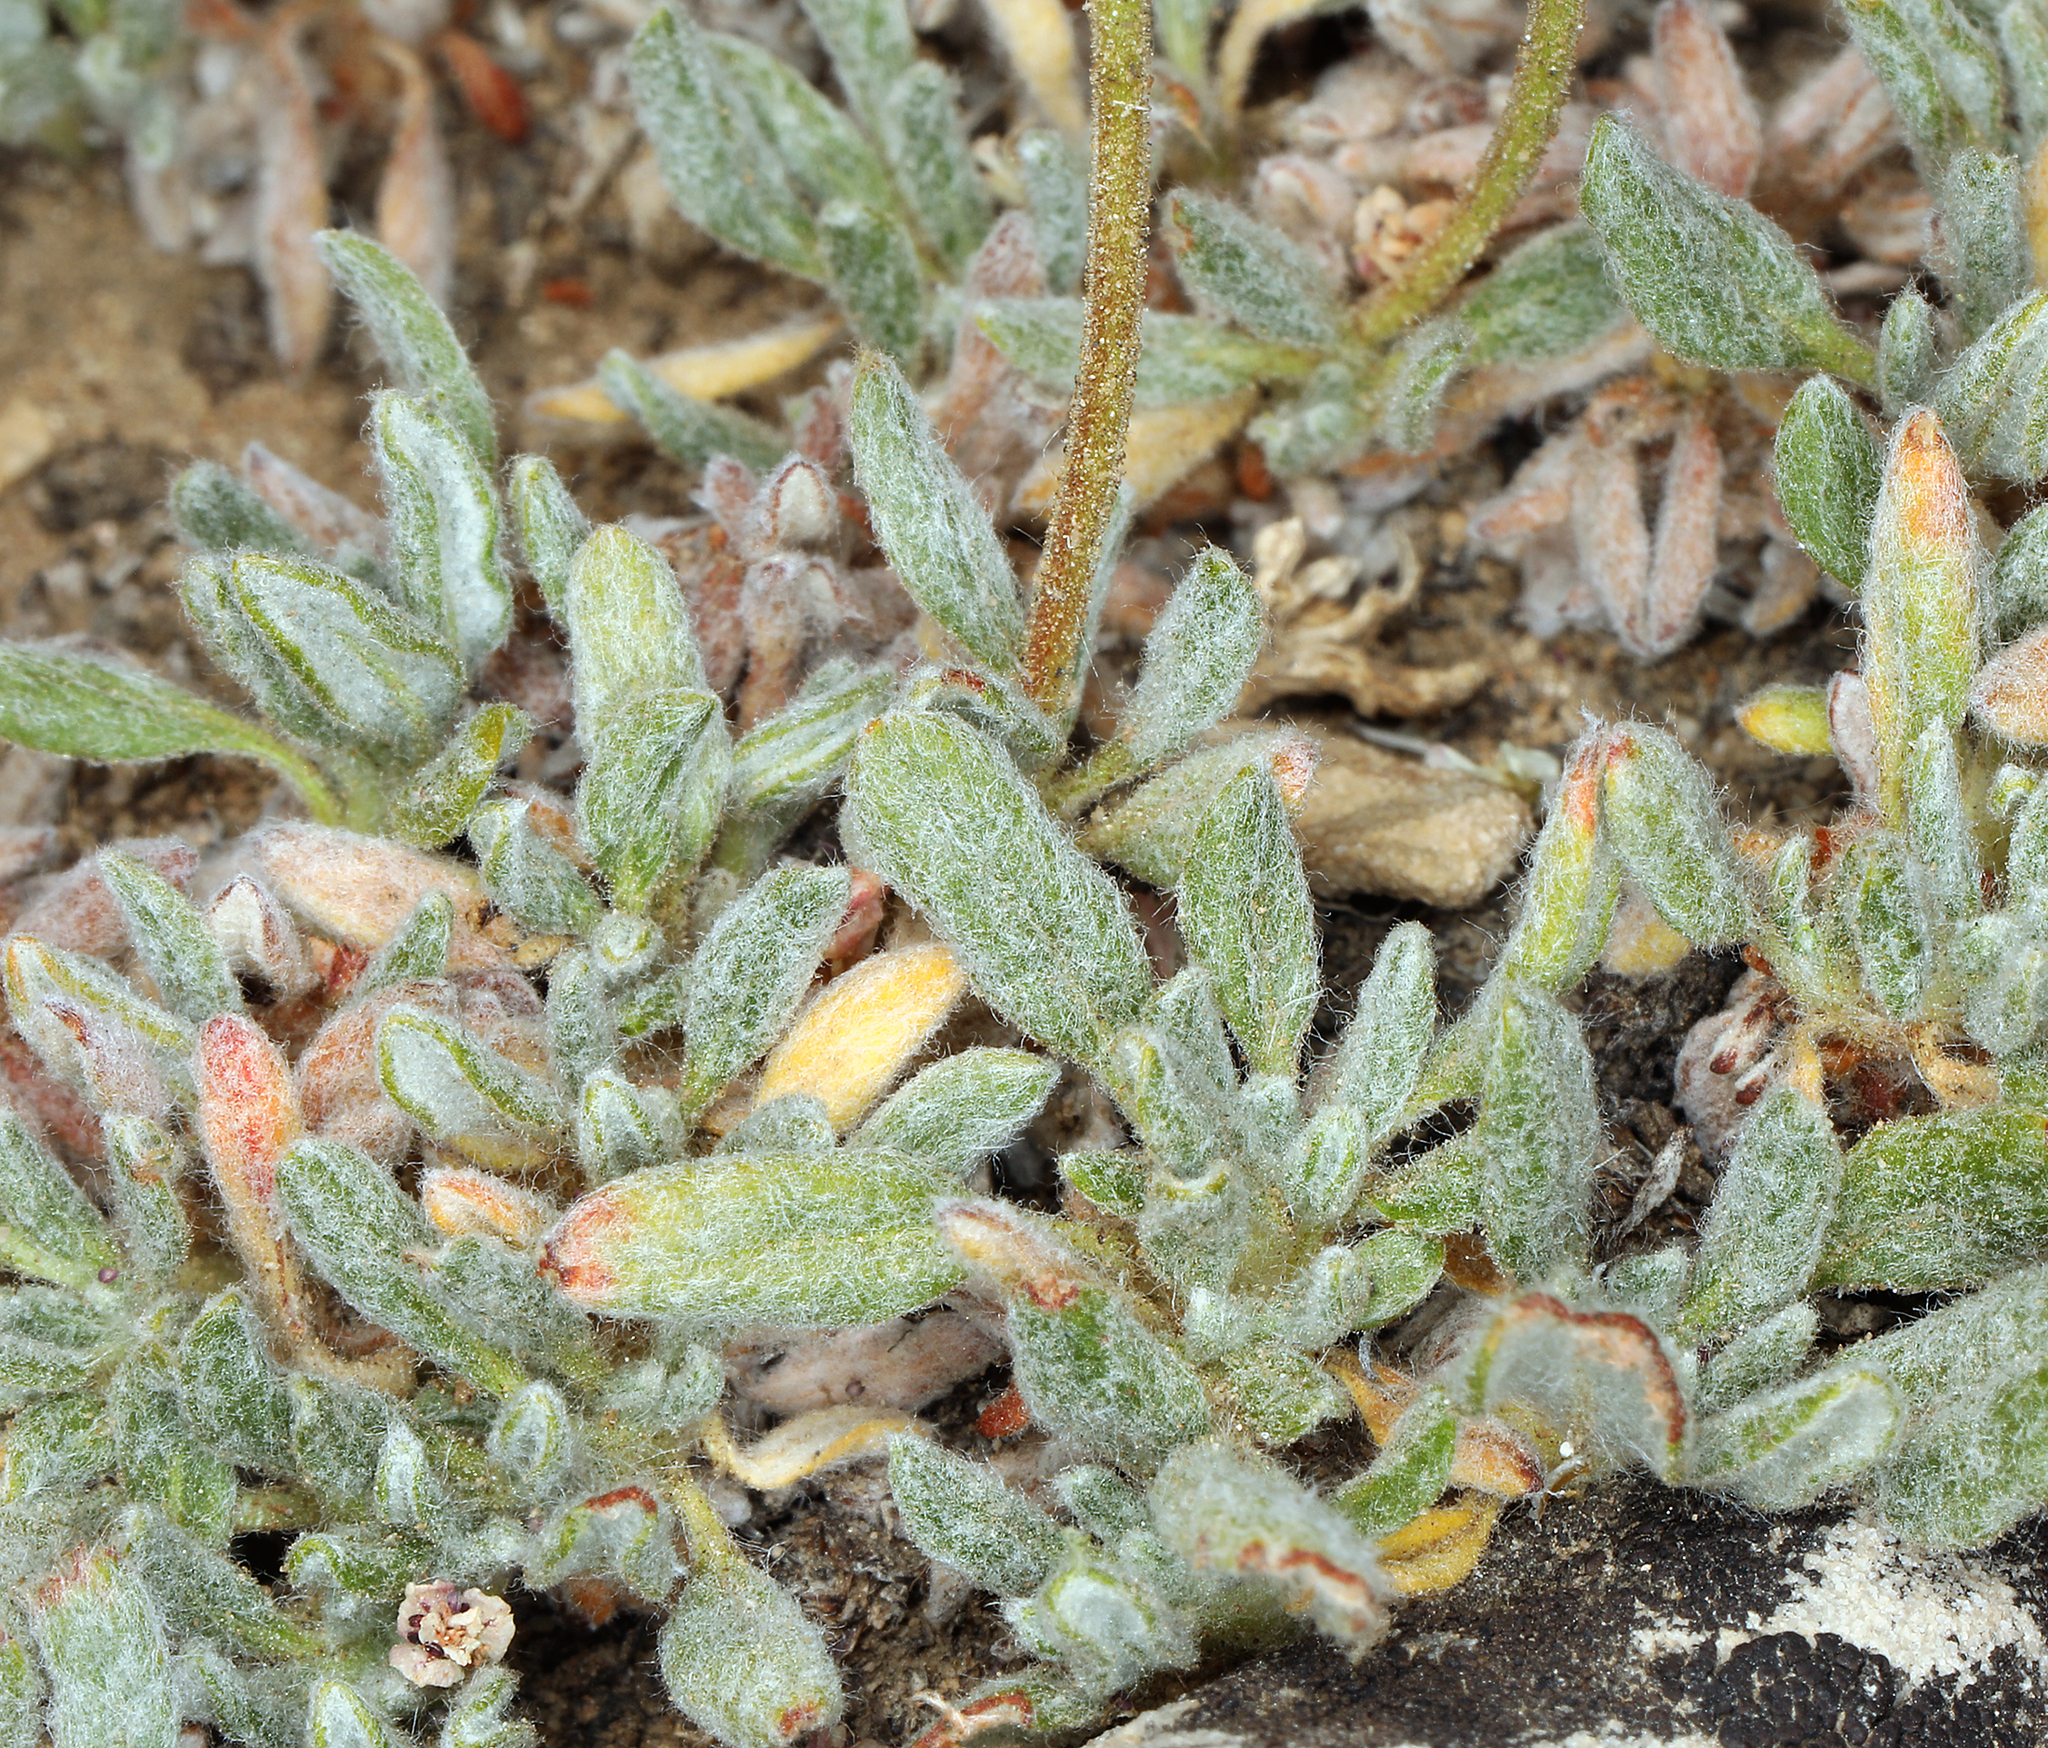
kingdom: Plantae
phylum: Tracheophyta
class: Magnoliopsida
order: Caryophyllales
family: Polygonaceae
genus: Eriogonum
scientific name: Eriogonum gracilipes
